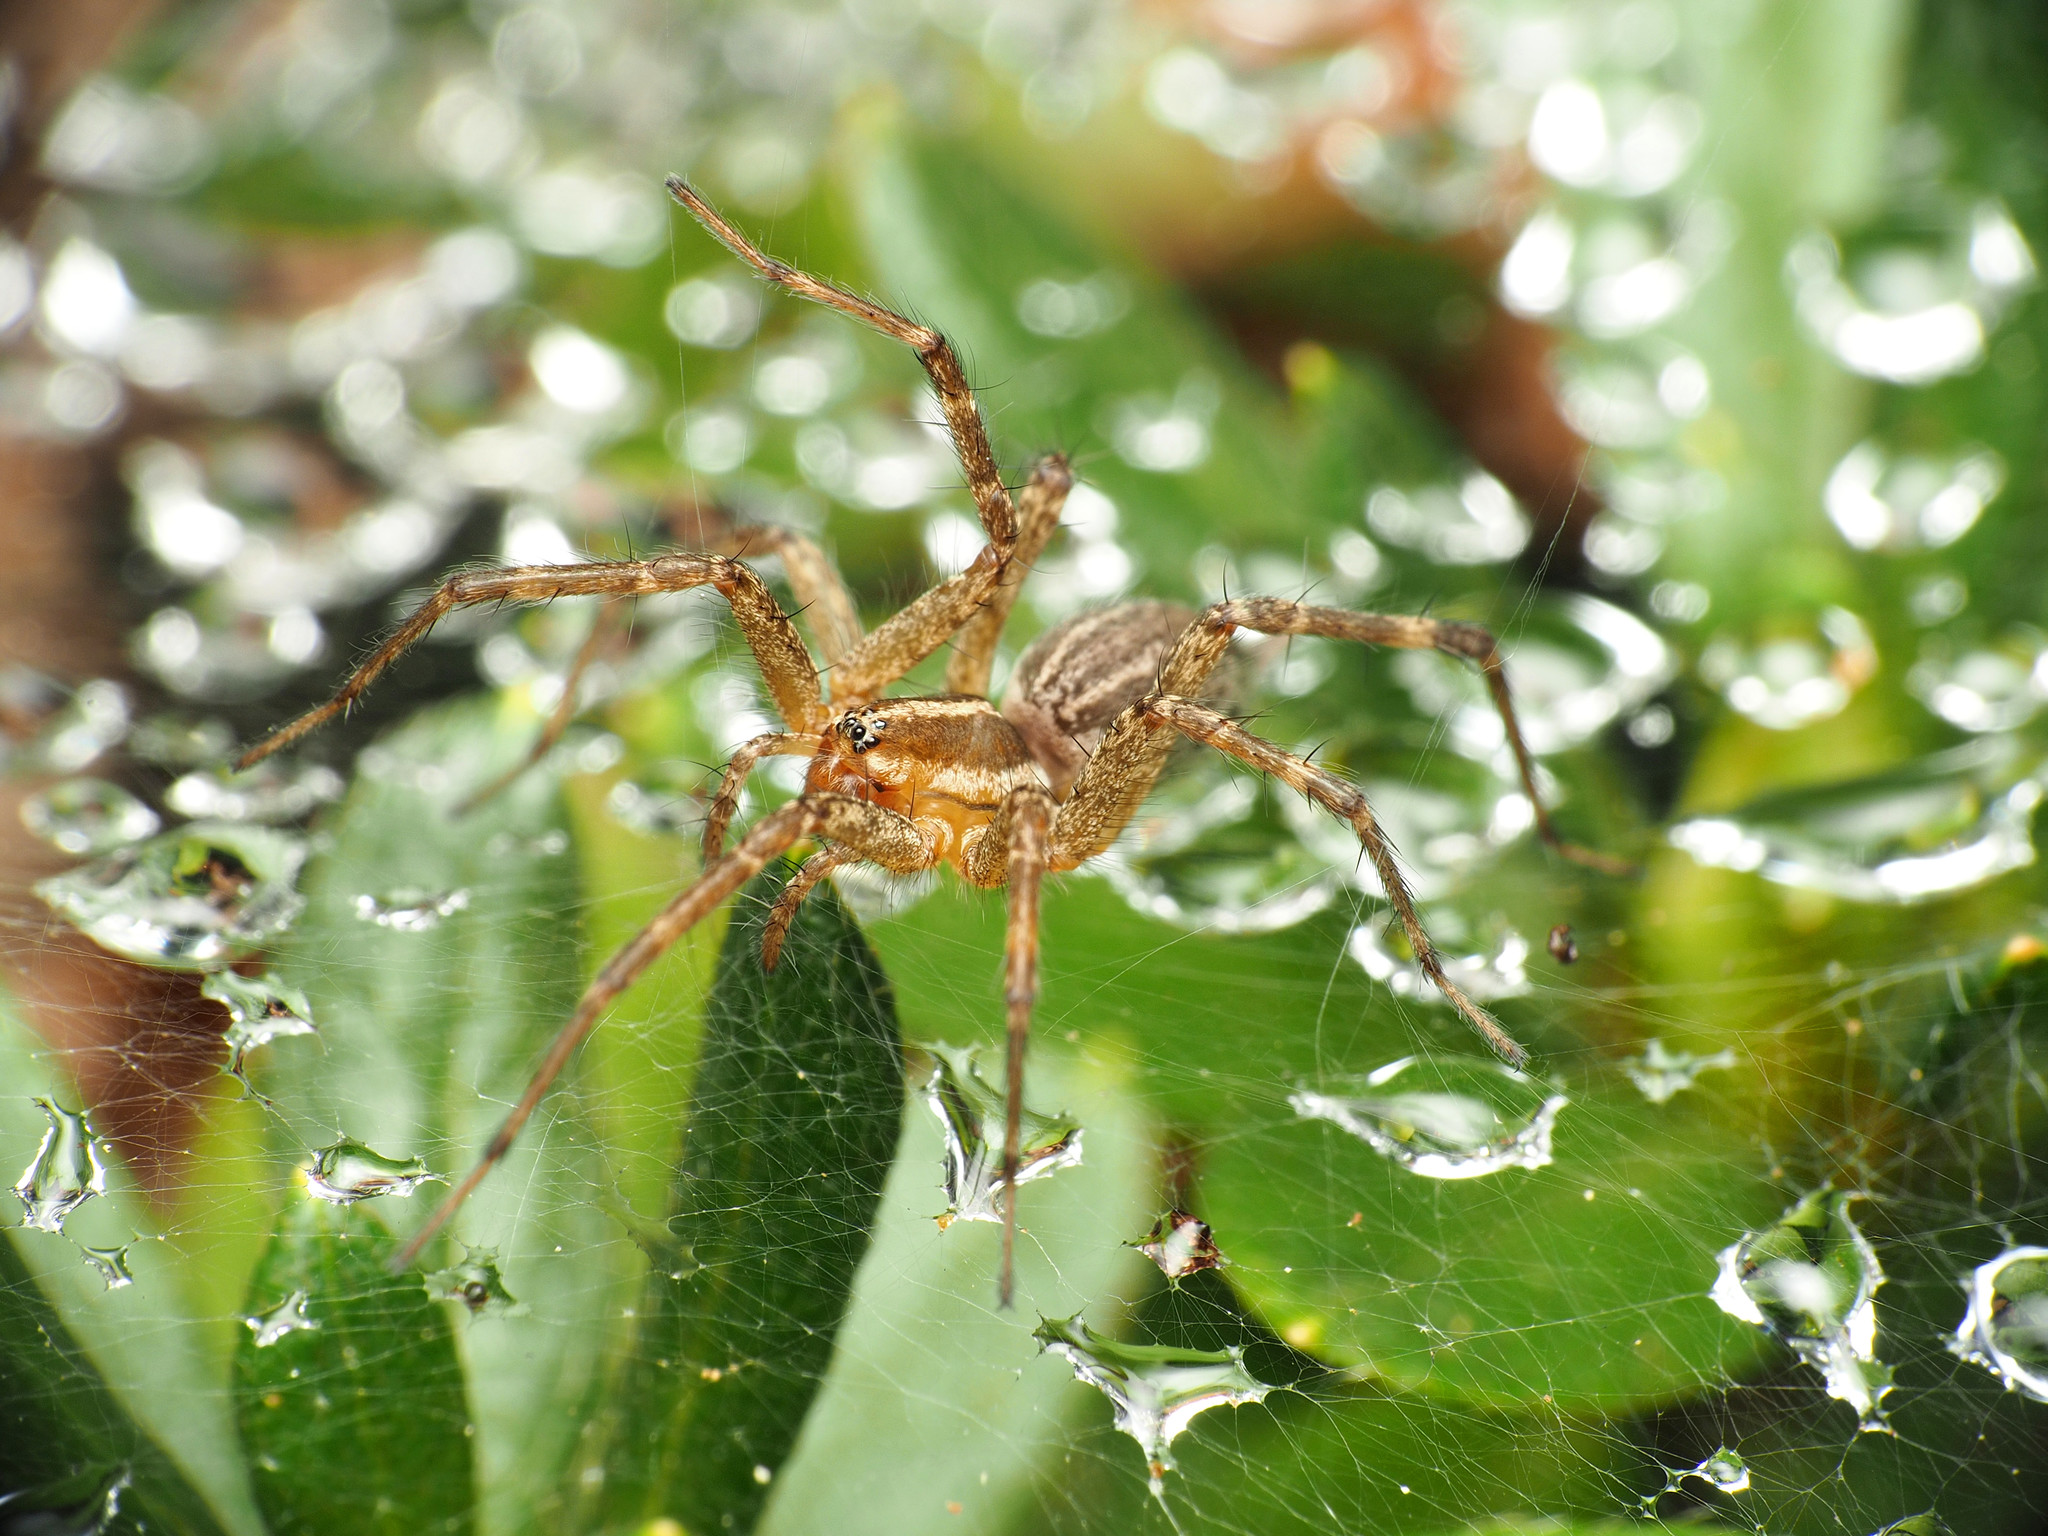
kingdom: Animalia
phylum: Arthropoda
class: Arachnida
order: Araneae
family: Agelenidae
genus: Agelenopsis
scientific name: Agelenopsis
